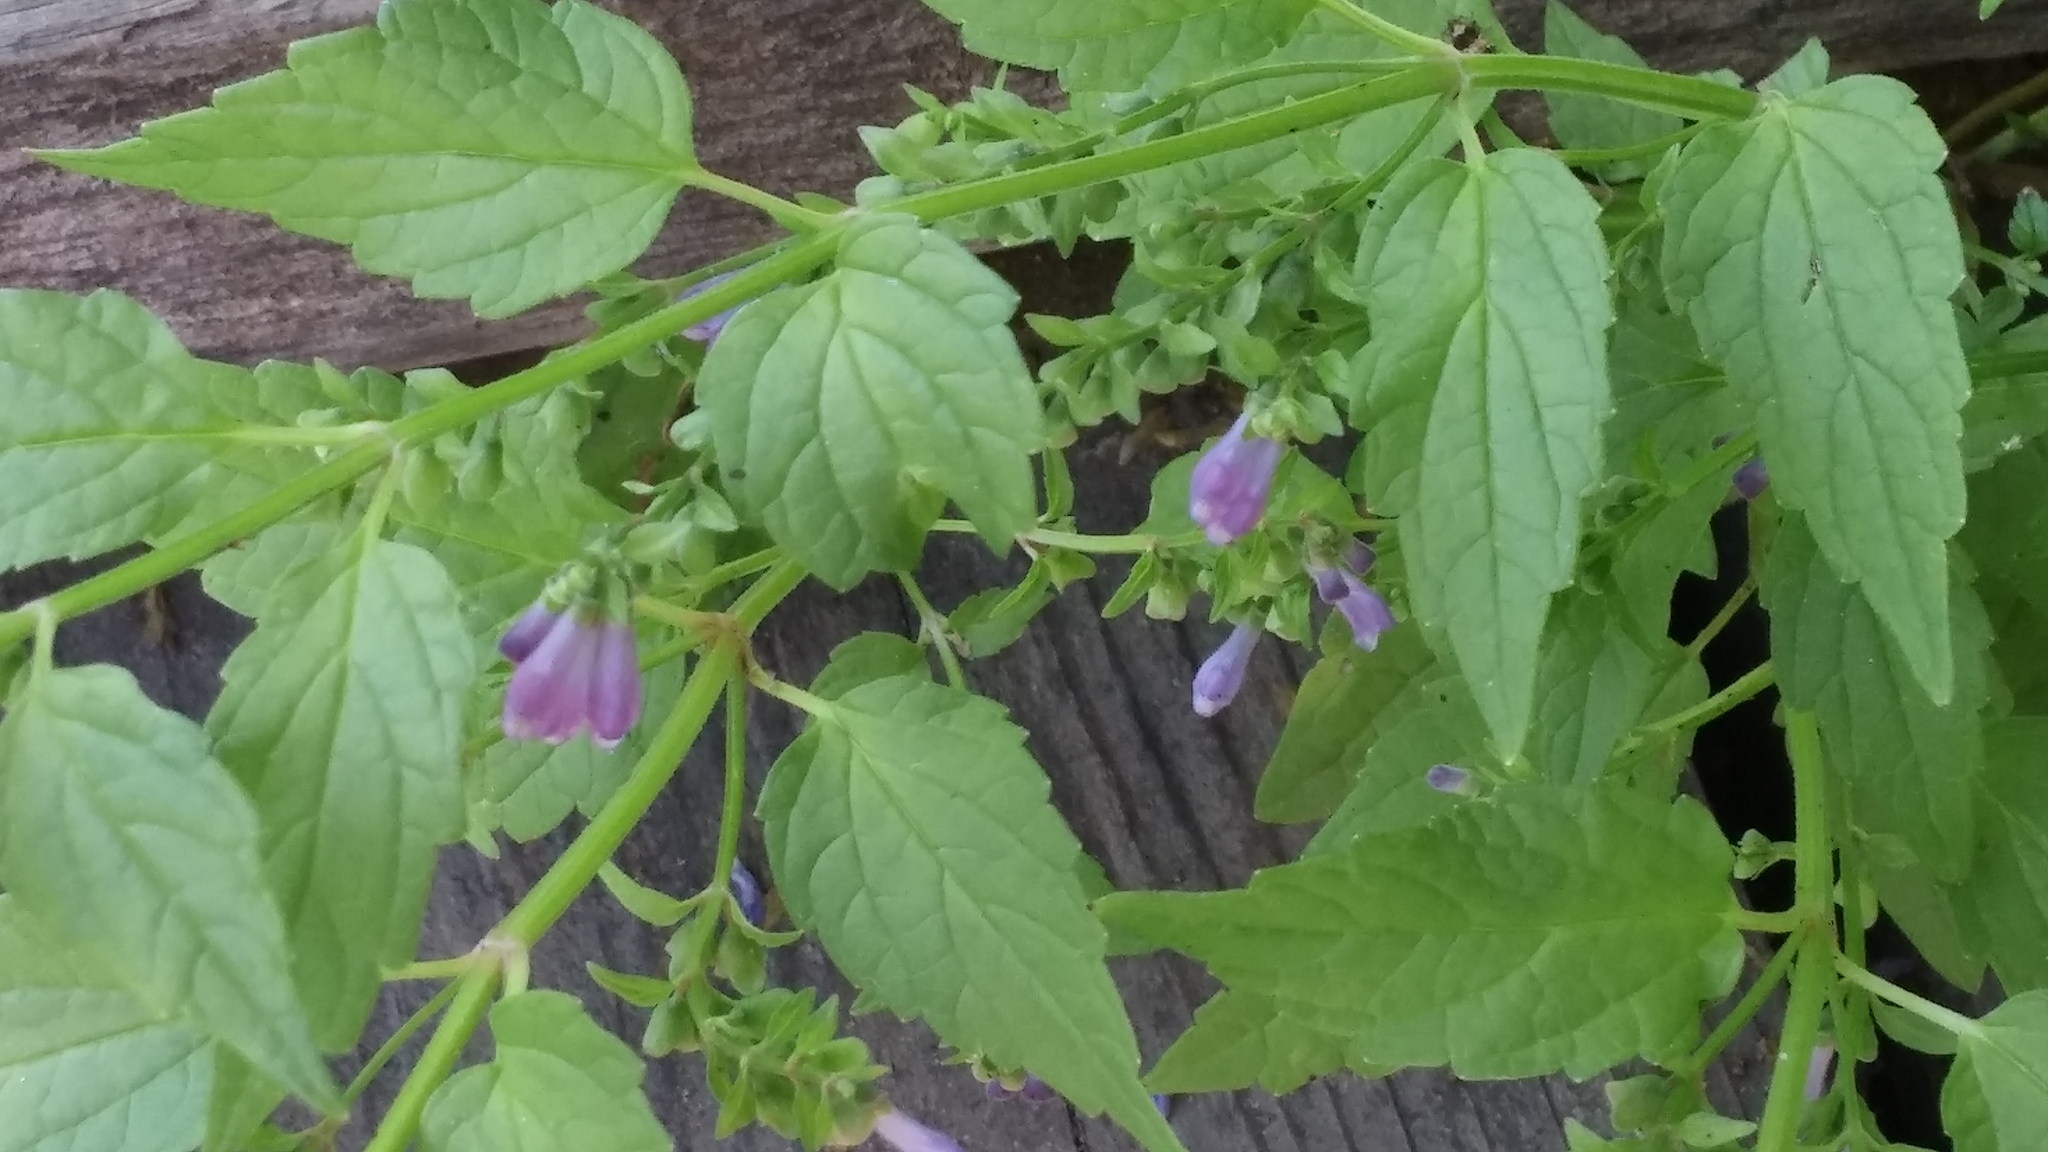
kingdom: Plantae
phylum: Tracheophyta
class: Magnoliopsida
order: Lamiales
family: Lamiaceae
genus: Scutellaria
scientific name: Scutellaria lateriflora
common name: Blue skullcap
